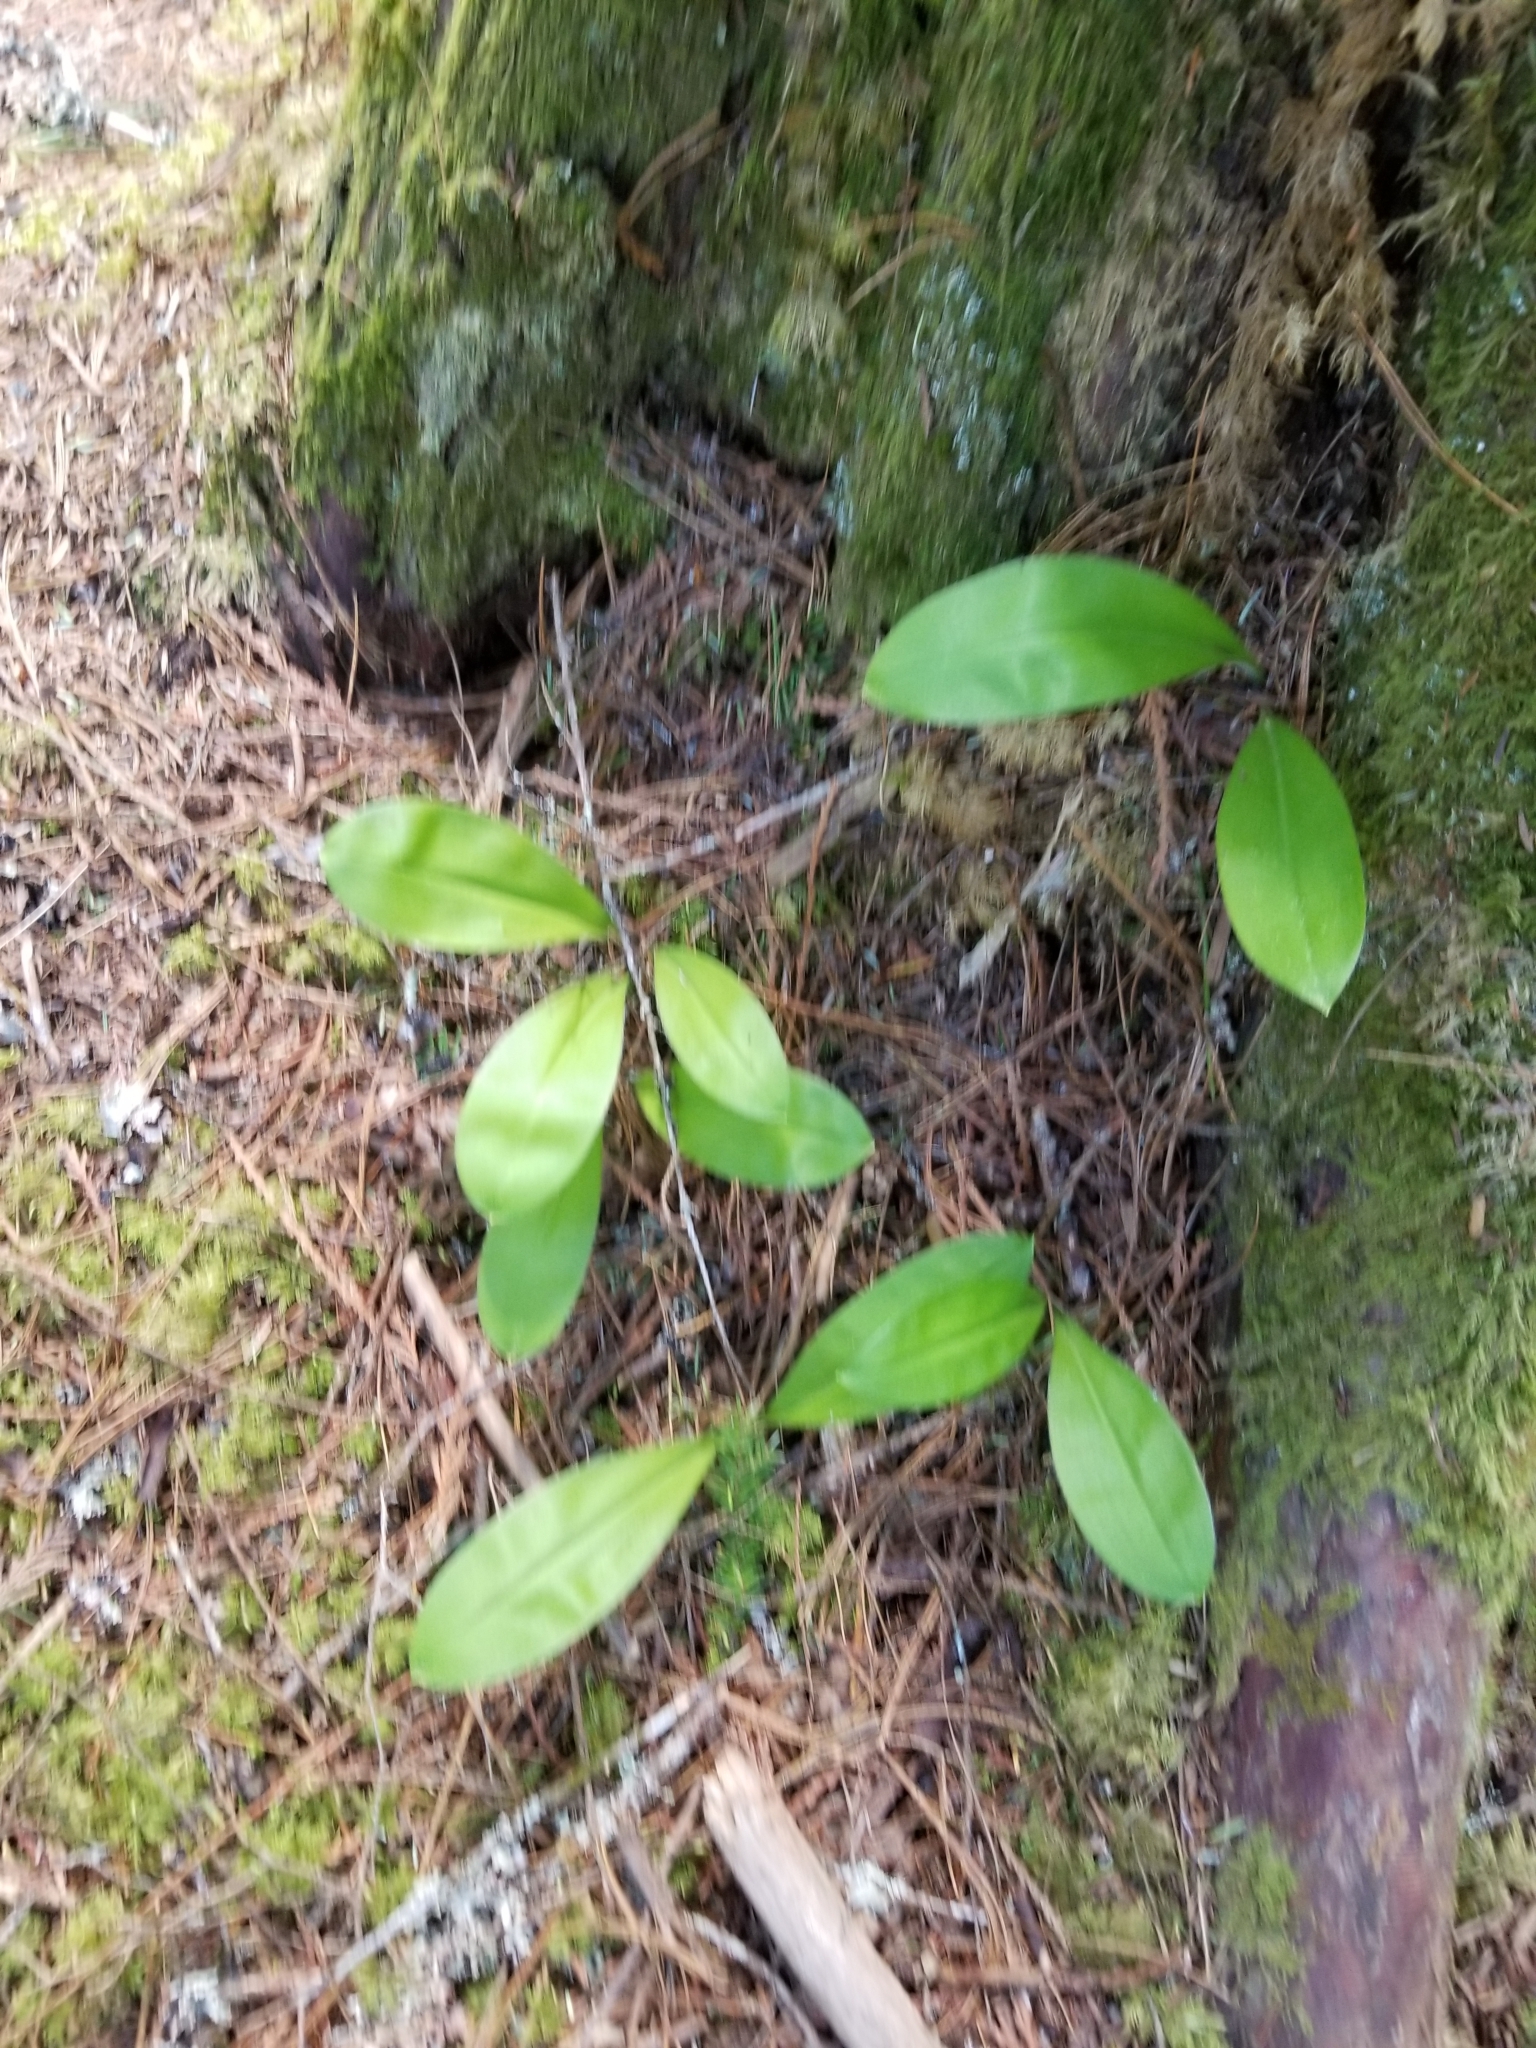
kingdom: Plantae
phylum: Tracheophyta
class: Liliopsida
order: Liliales
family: Liliaceae
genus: Clintonia
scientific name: Clintonia uniflora
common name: Queen's cup
